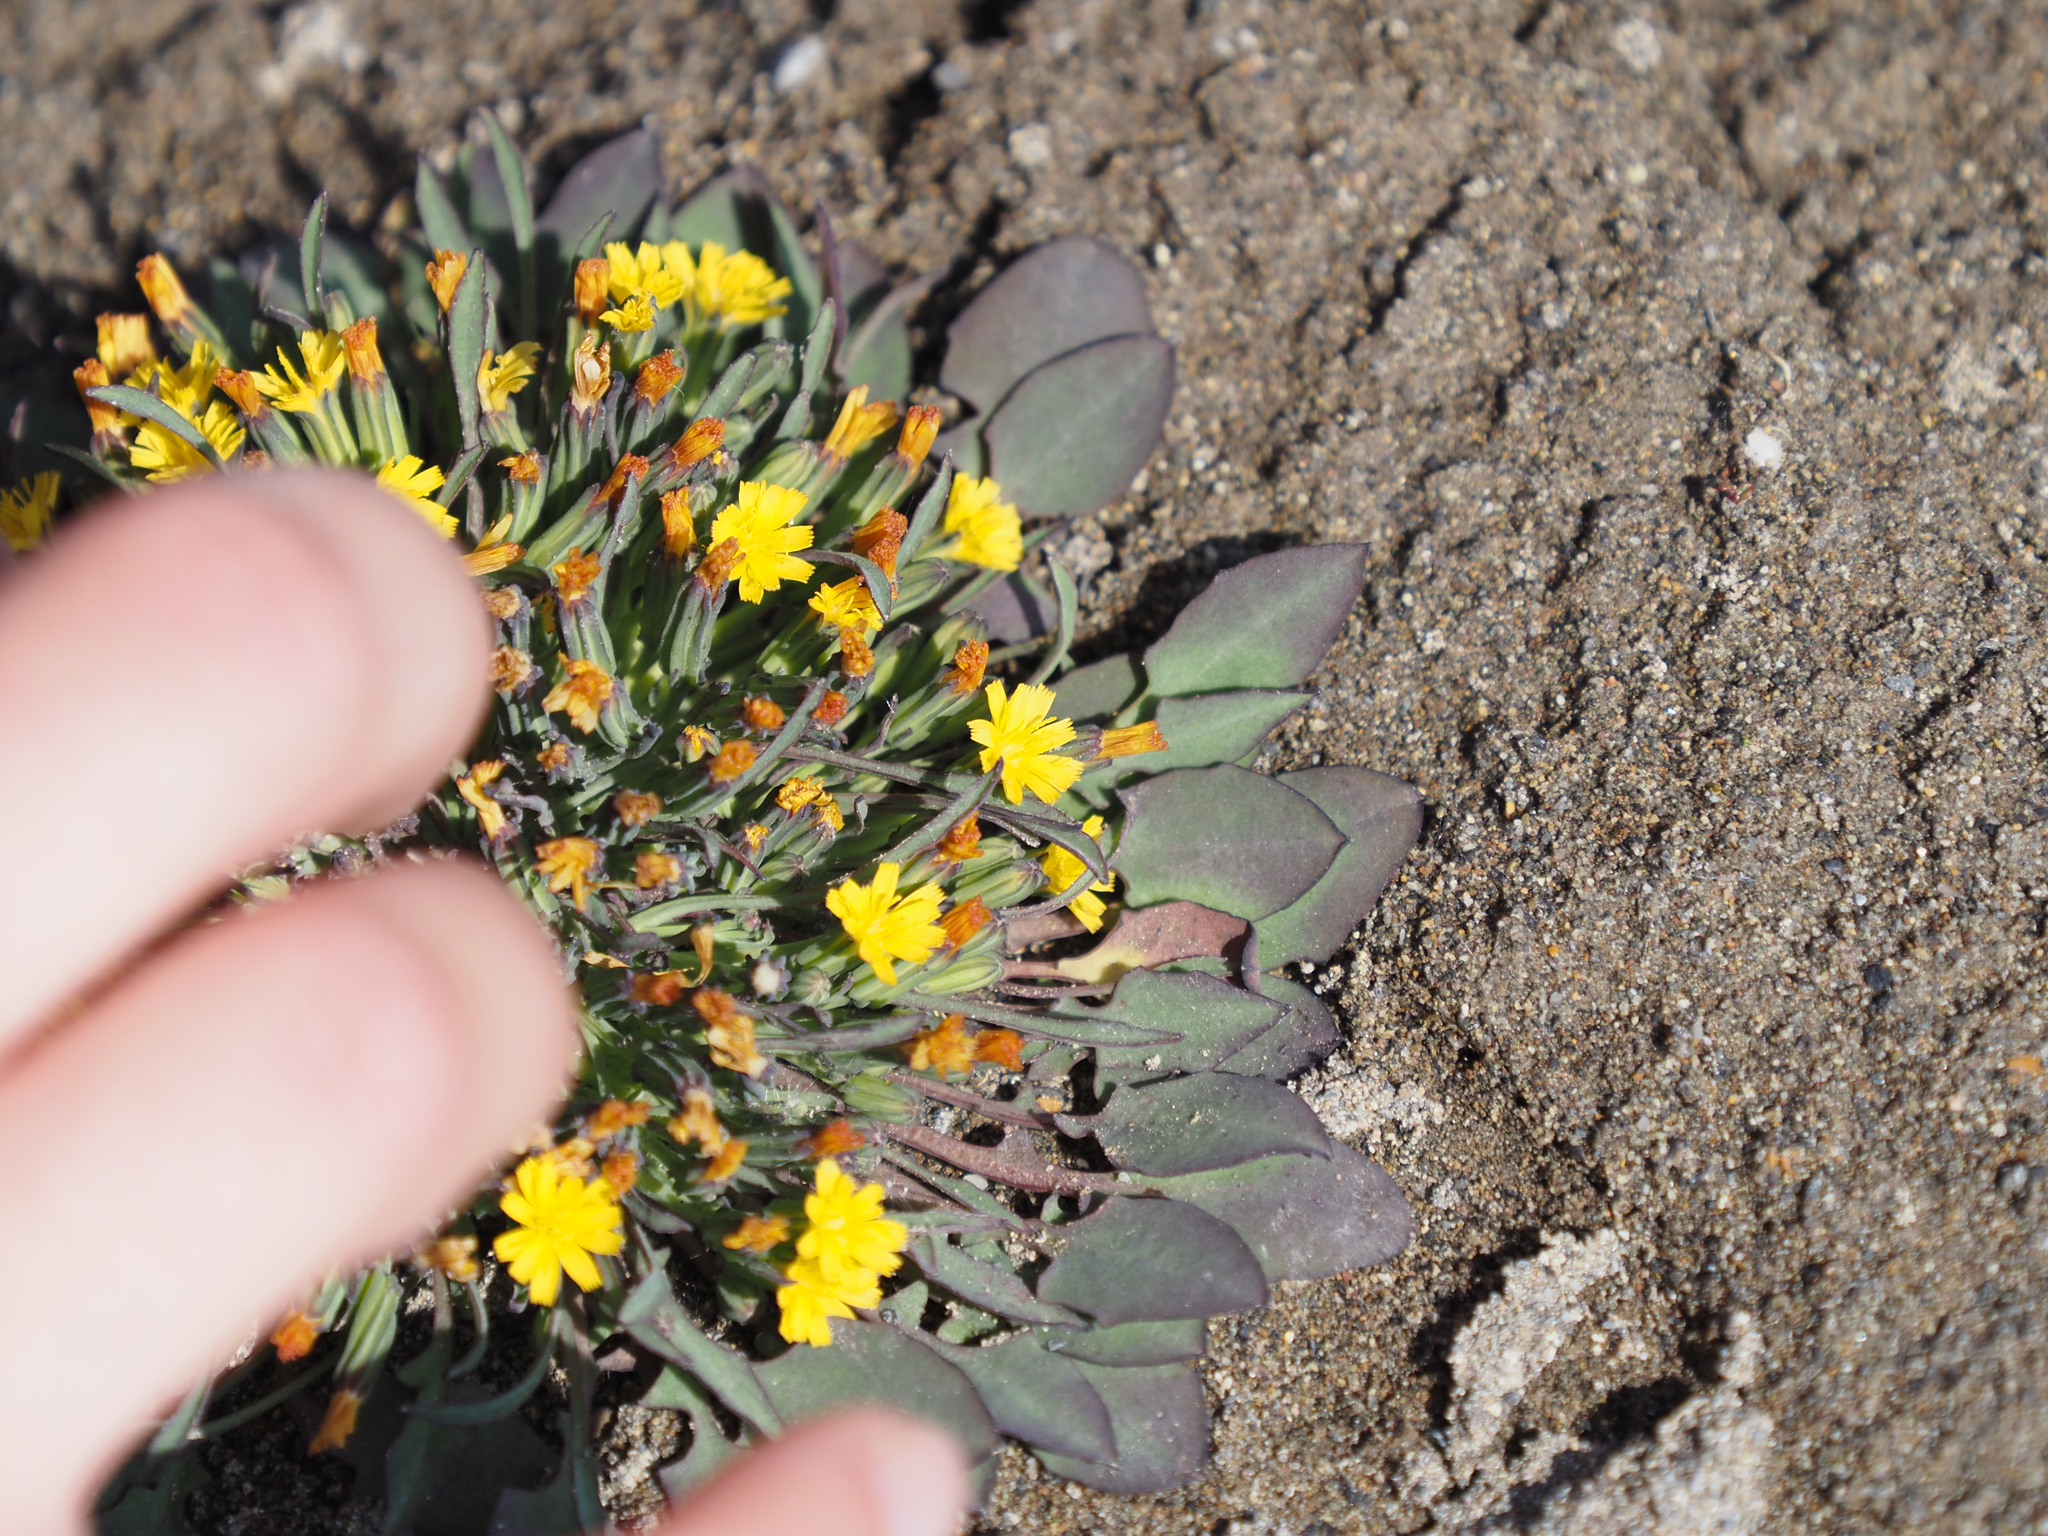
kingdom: Plantae
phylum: Tracheophyta
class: Magnoliopsida
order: Asterales
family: Asteraceae
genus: Askellia
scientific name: Askellia pygmaea
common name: Dwarf alpine hawksbeard
